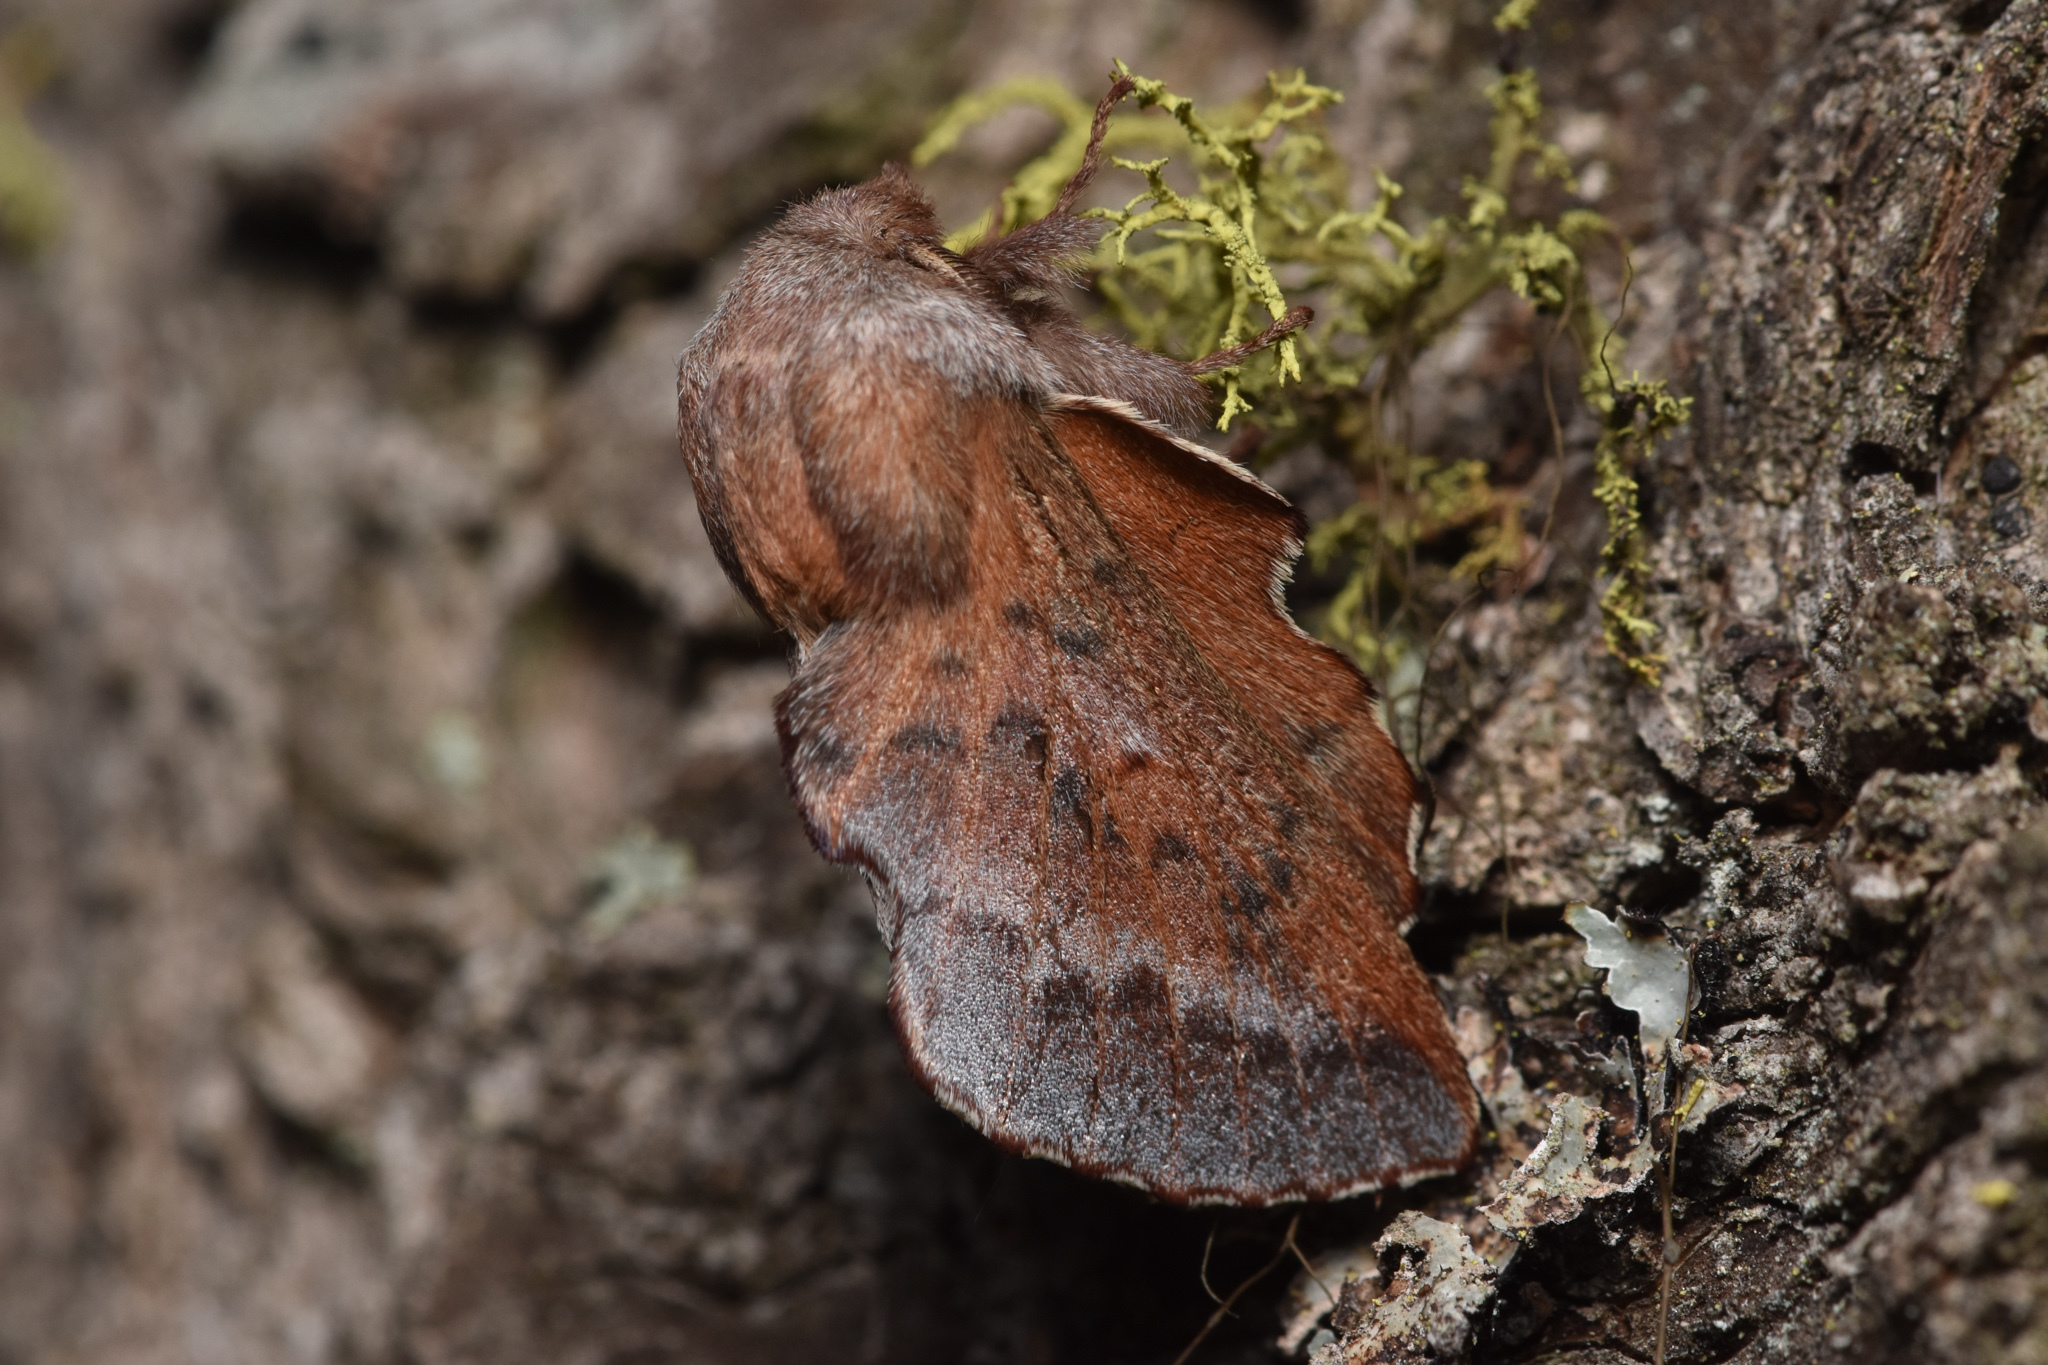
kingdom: Animalia
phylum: Arthropoda
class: Insecta
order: Lepidoptera
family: Lasiocampidae
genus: Phyllodesma
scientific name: Phyllodesma americana
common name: American lappet moth
